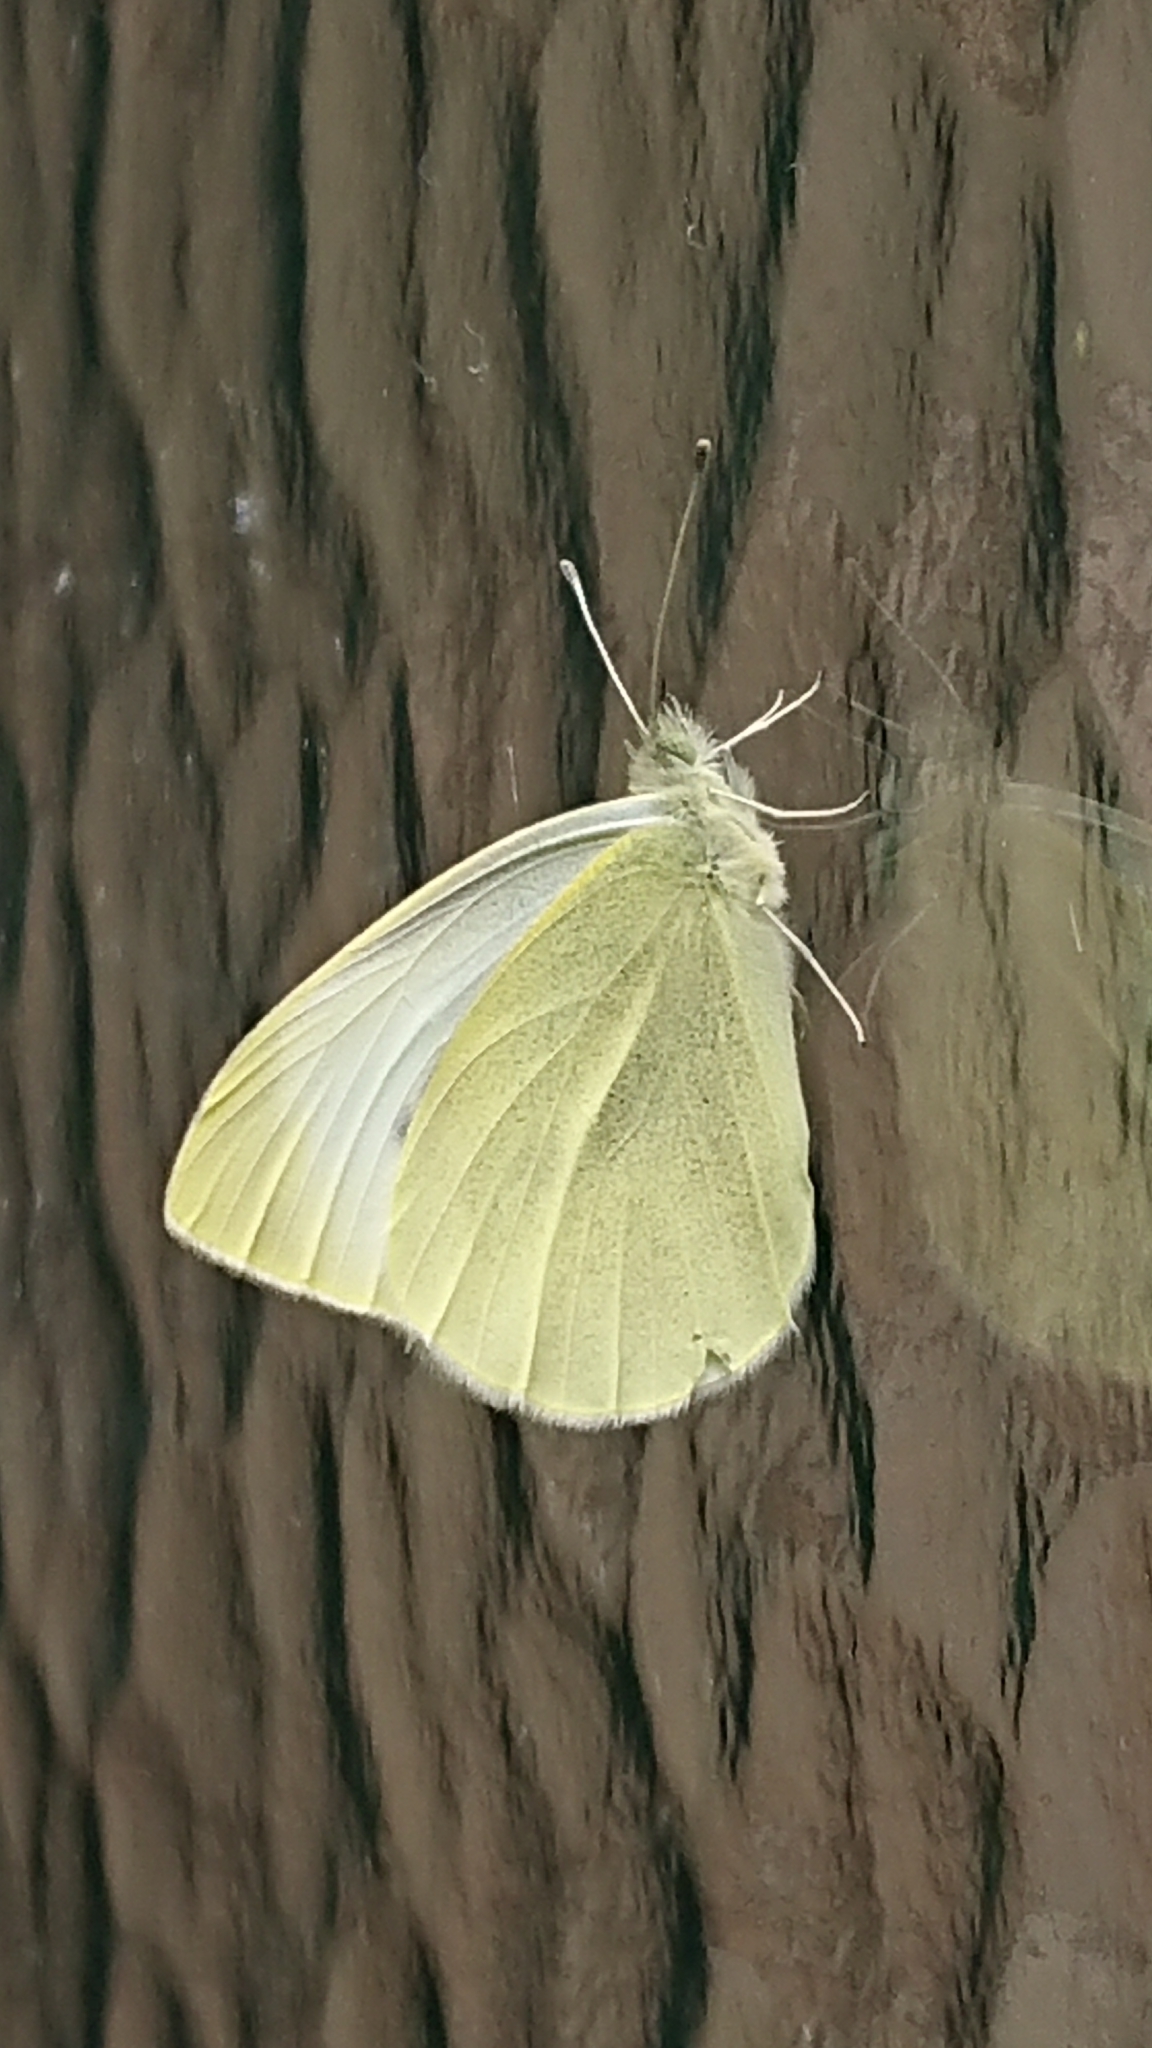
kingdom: Animalia
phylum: Arthropoda
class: Insecta
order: Lepidoptera
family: Pieridae
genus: Pieris
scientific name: Pieris rapae
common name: Small white
